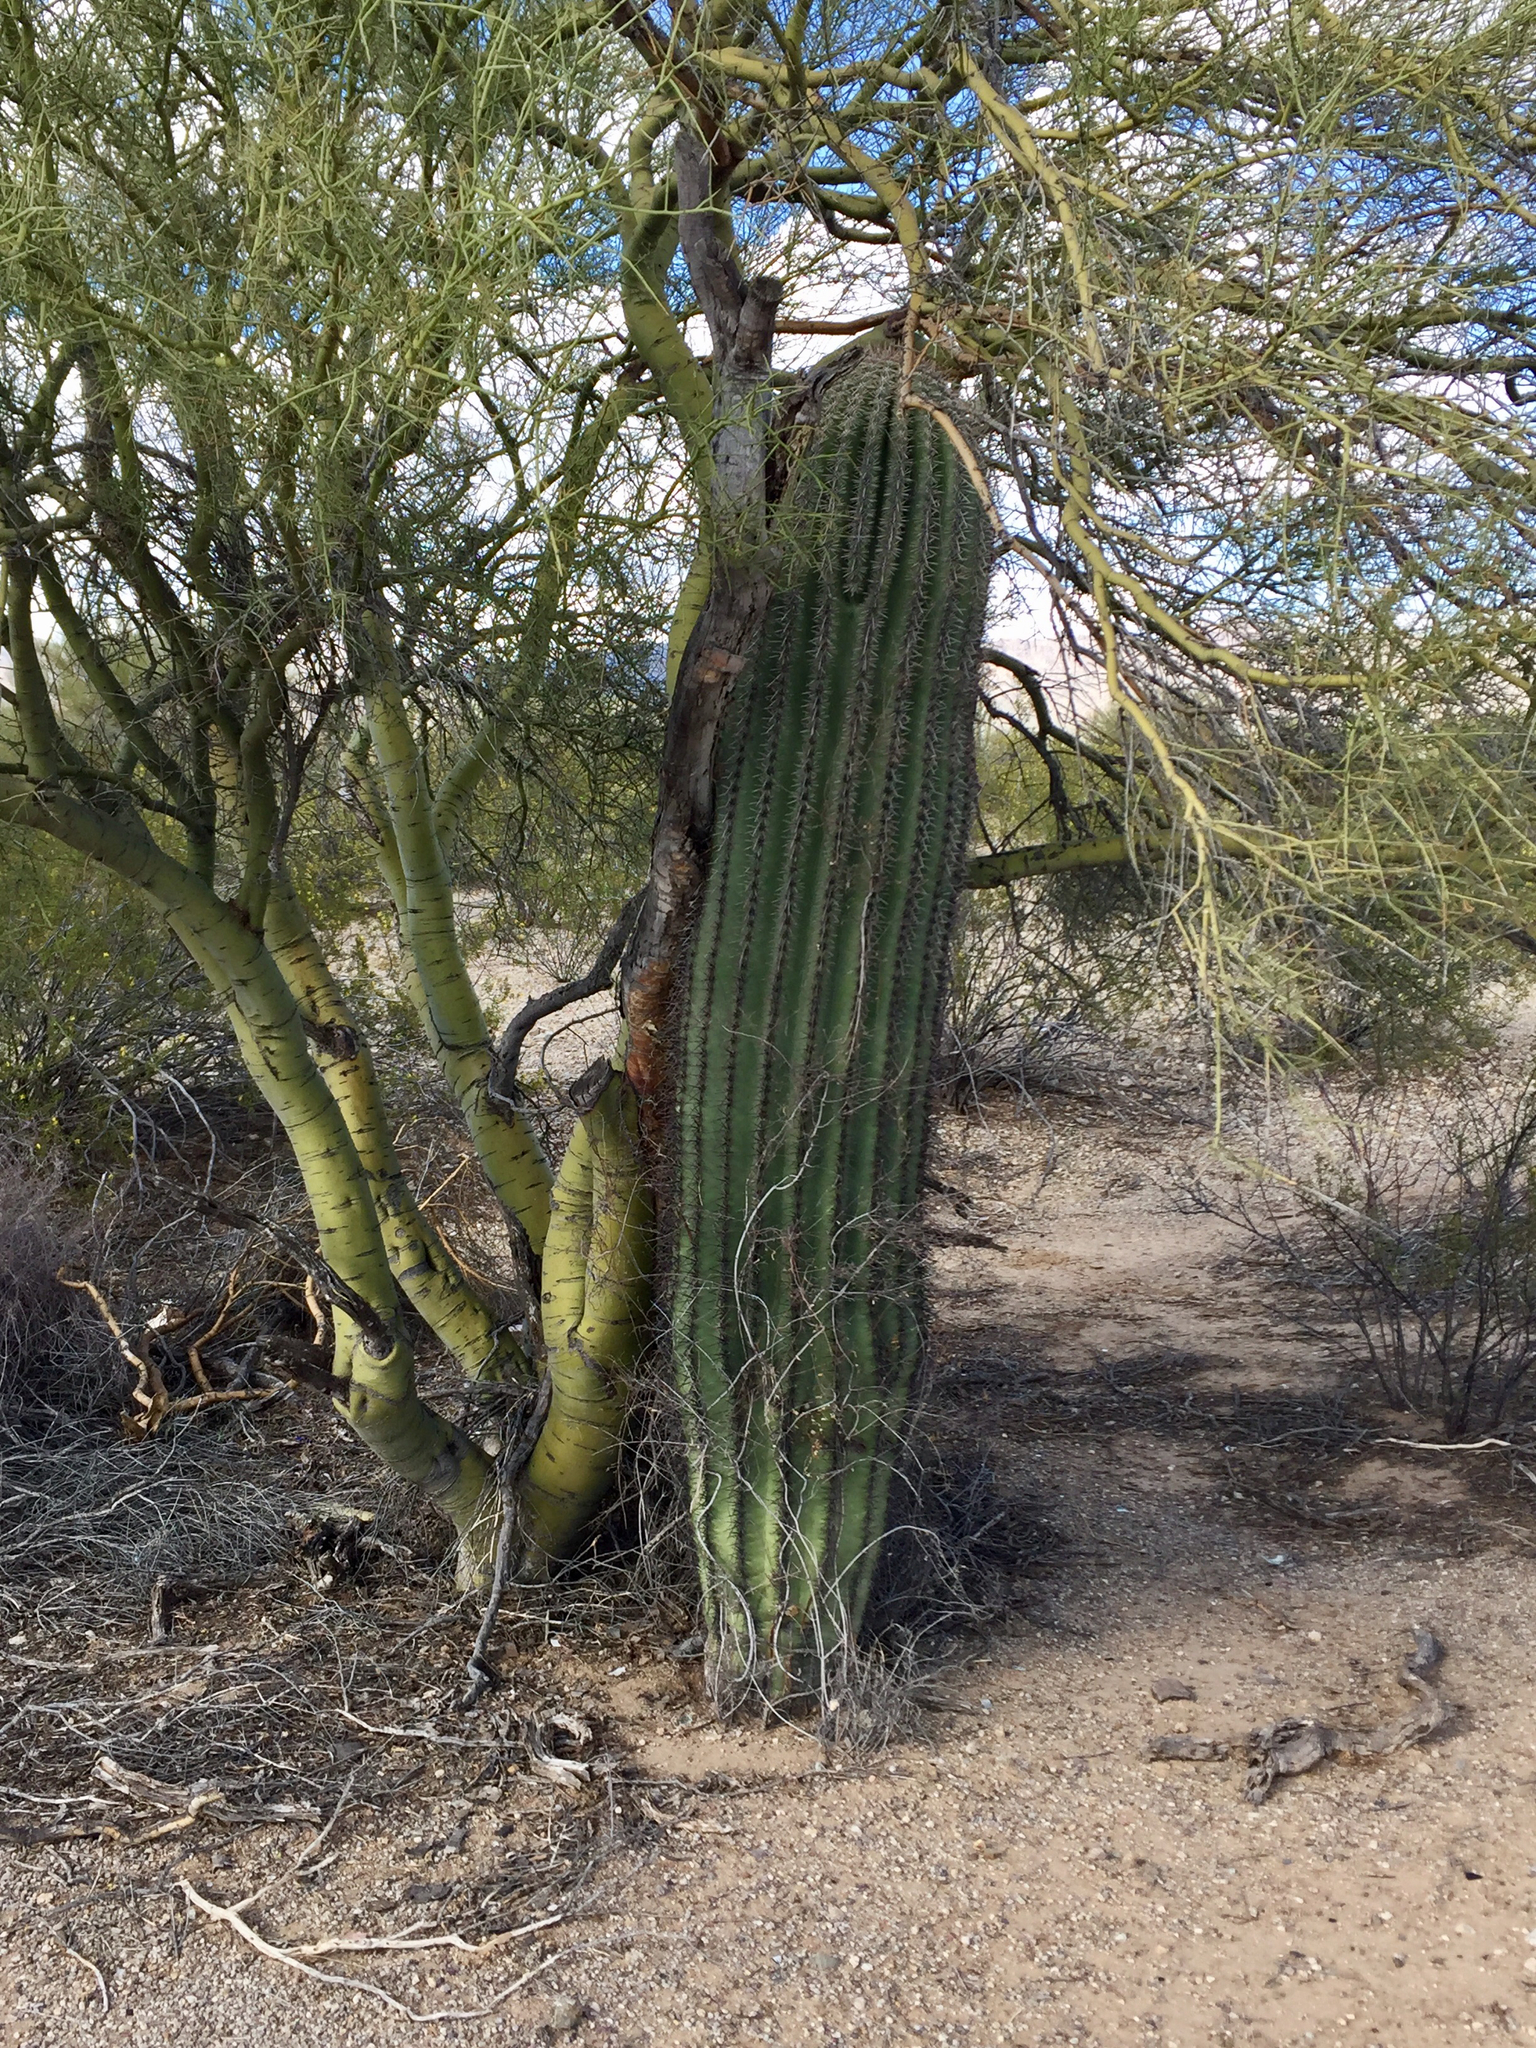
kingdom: Plantae
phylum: Tracheophyta
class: Magnoliopsida
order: Caryophyllales
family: Cactaceae
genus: Carnegiea
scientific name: Carnegiea gigantea
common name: Saguaro
